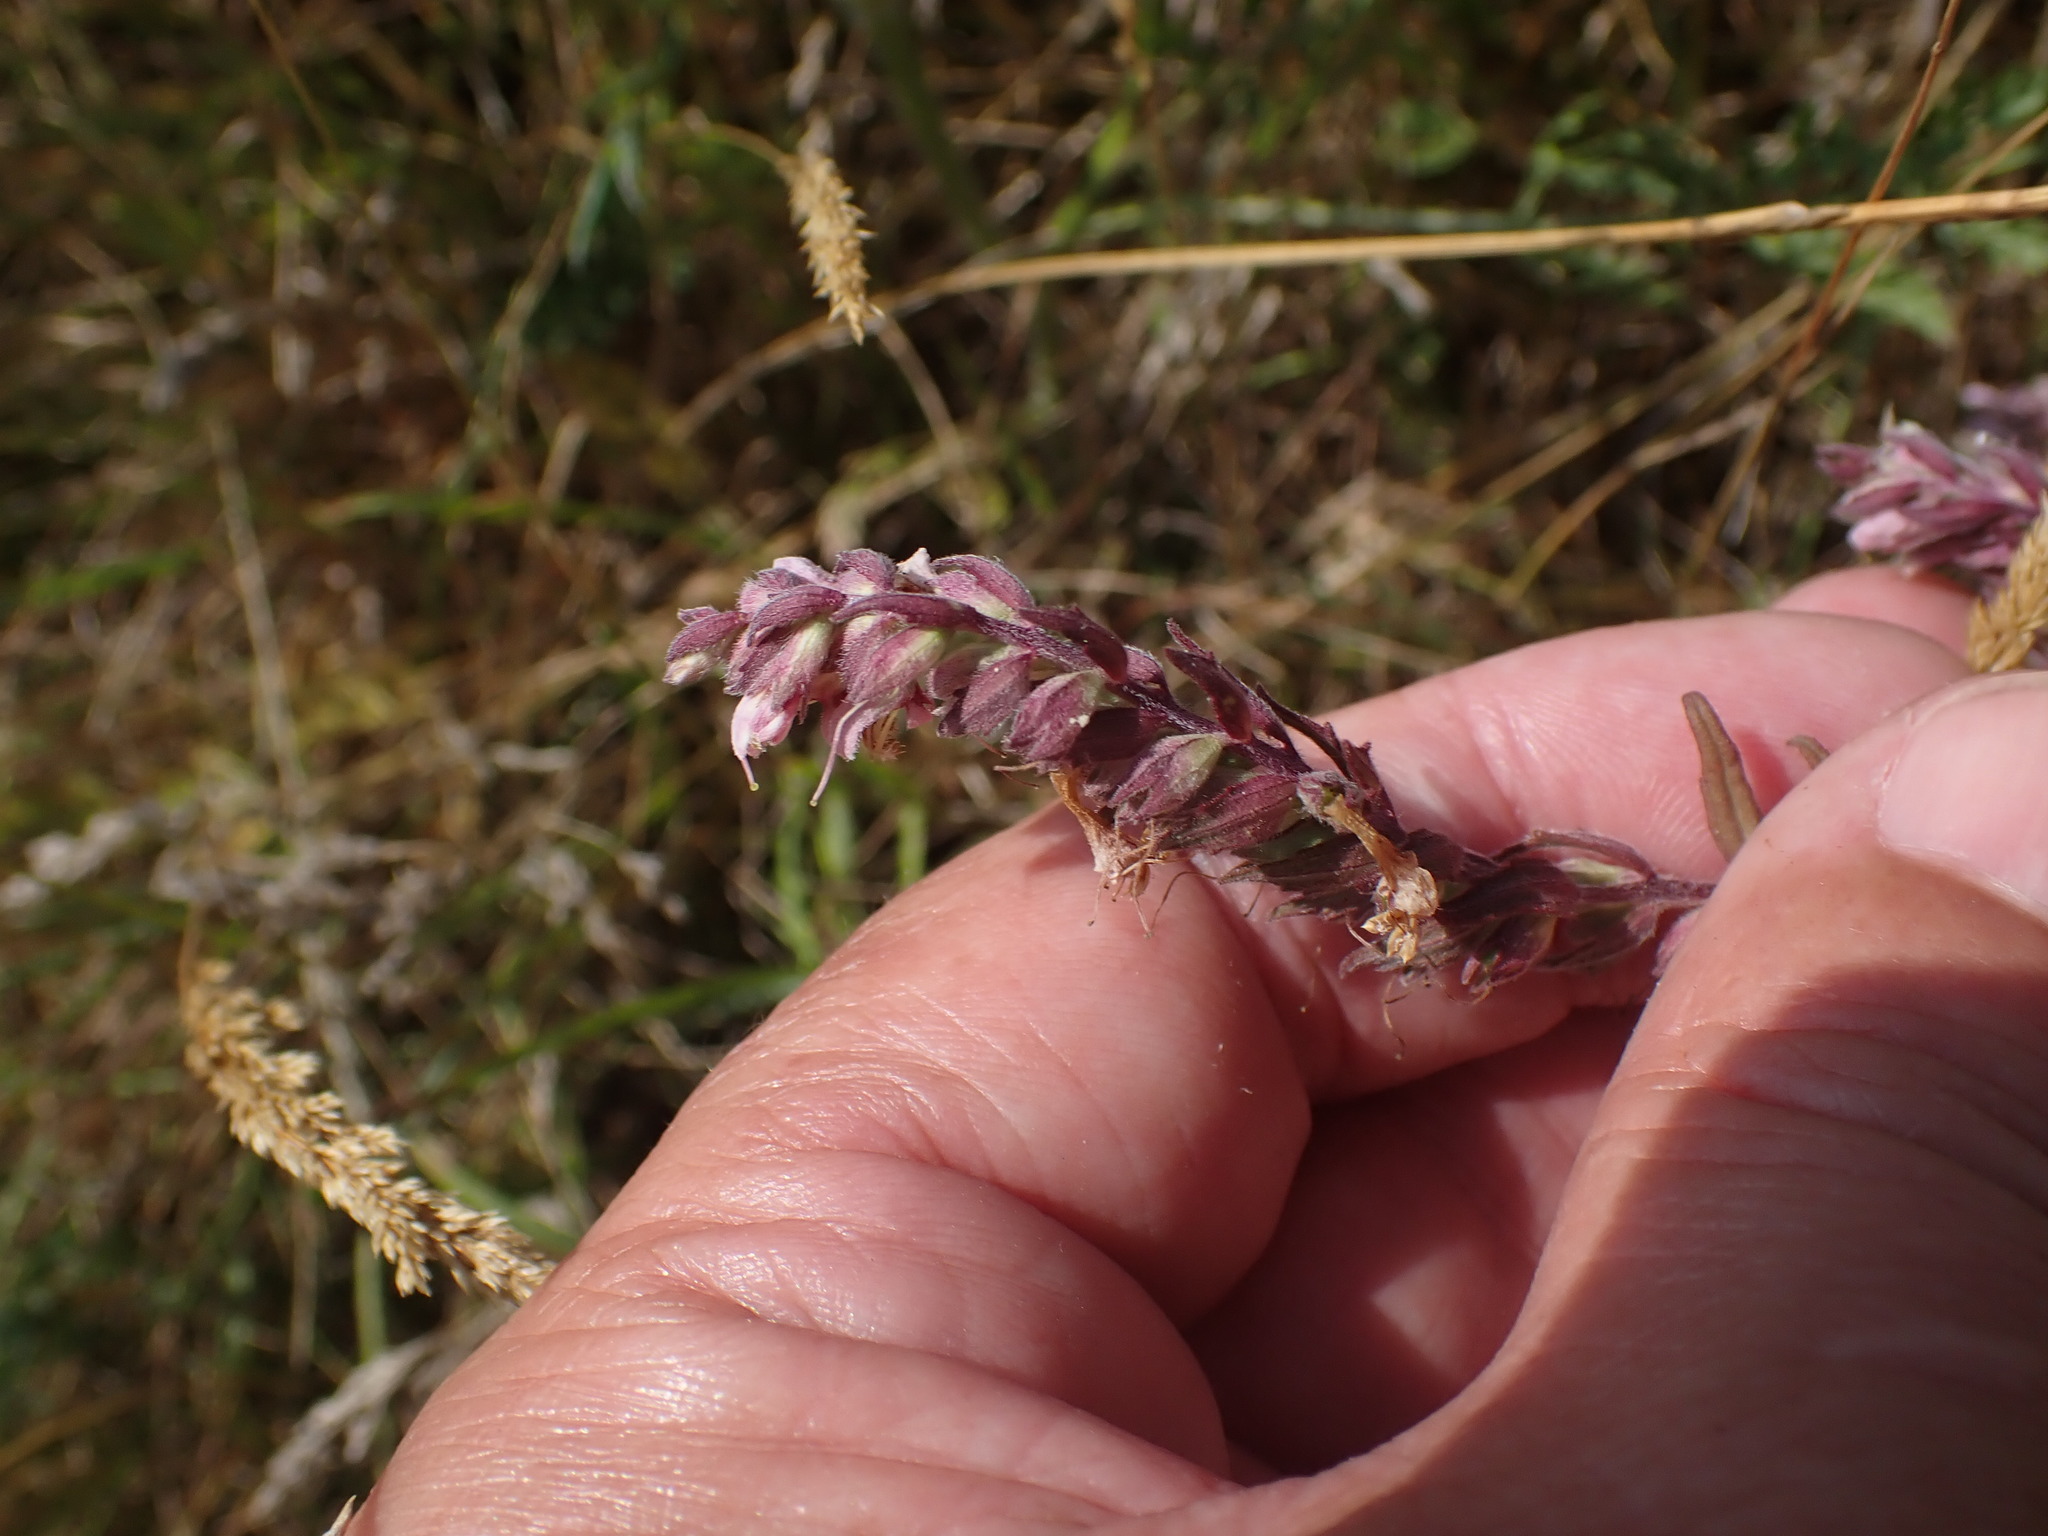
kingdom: Plantae
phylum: Tracheophyta
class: Magnoliopsida
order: Lamiales
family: Orobanchaceae
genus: Odontites
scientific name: Odontites vulgaris
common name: Broomrape
